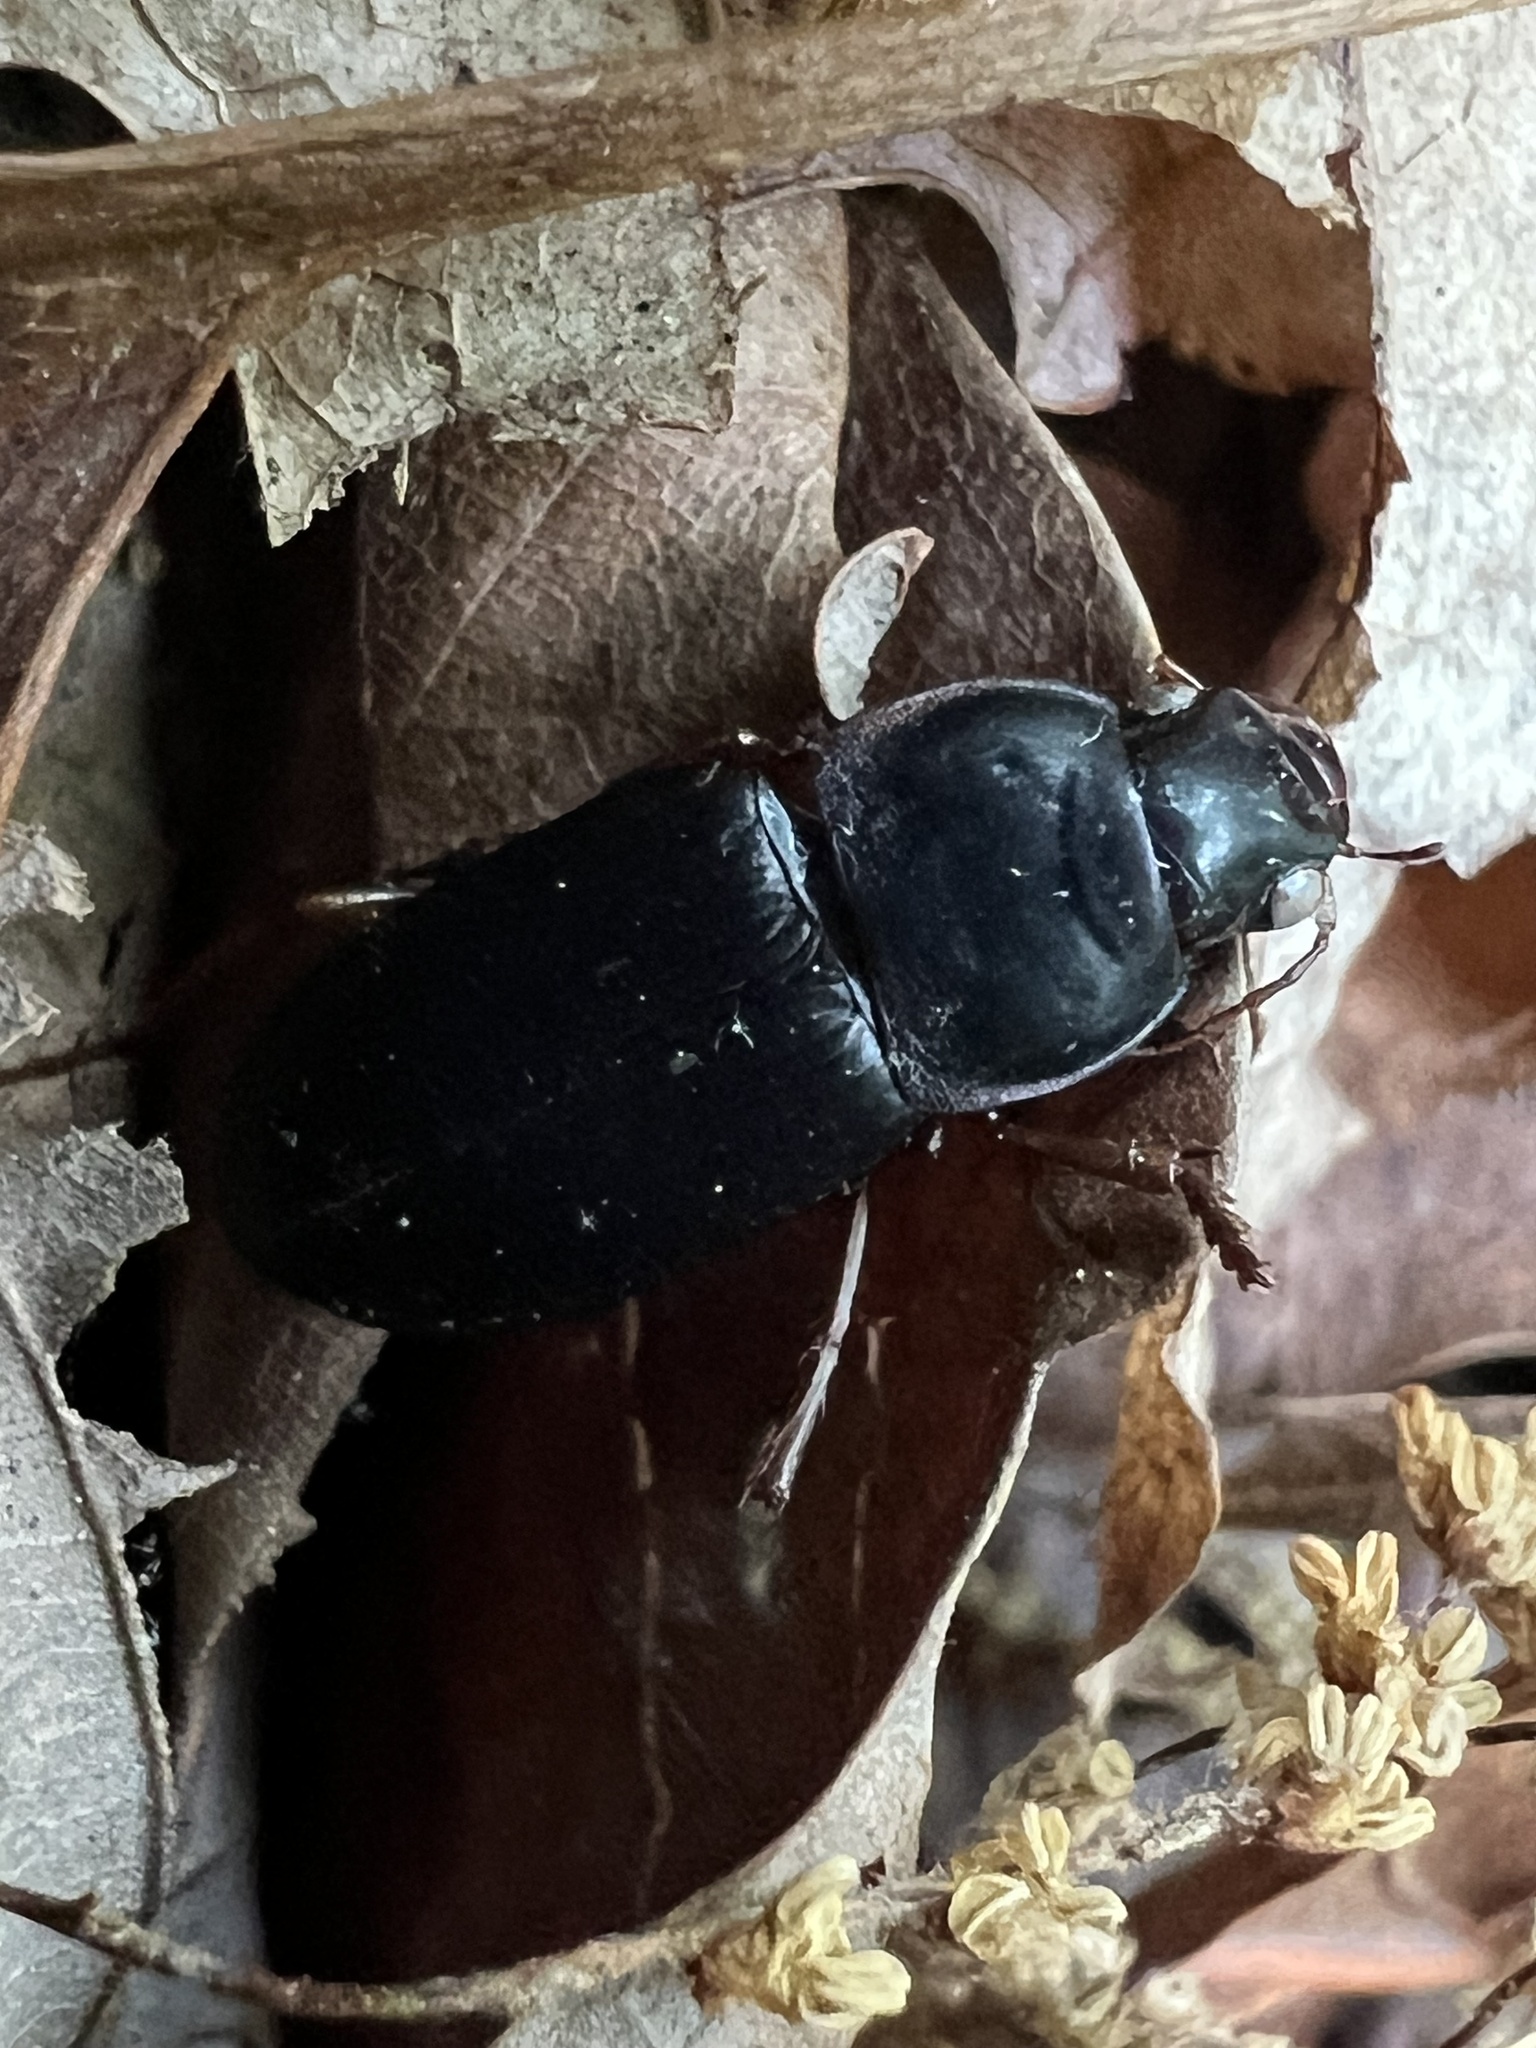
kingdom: Animalia
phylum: Arthropoda
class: Insecta
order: Coleoptera
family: Carabidae
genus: Harpalus
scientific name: Harpalus pensylvanicus
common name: Pennsylvania dingy ground beetle
